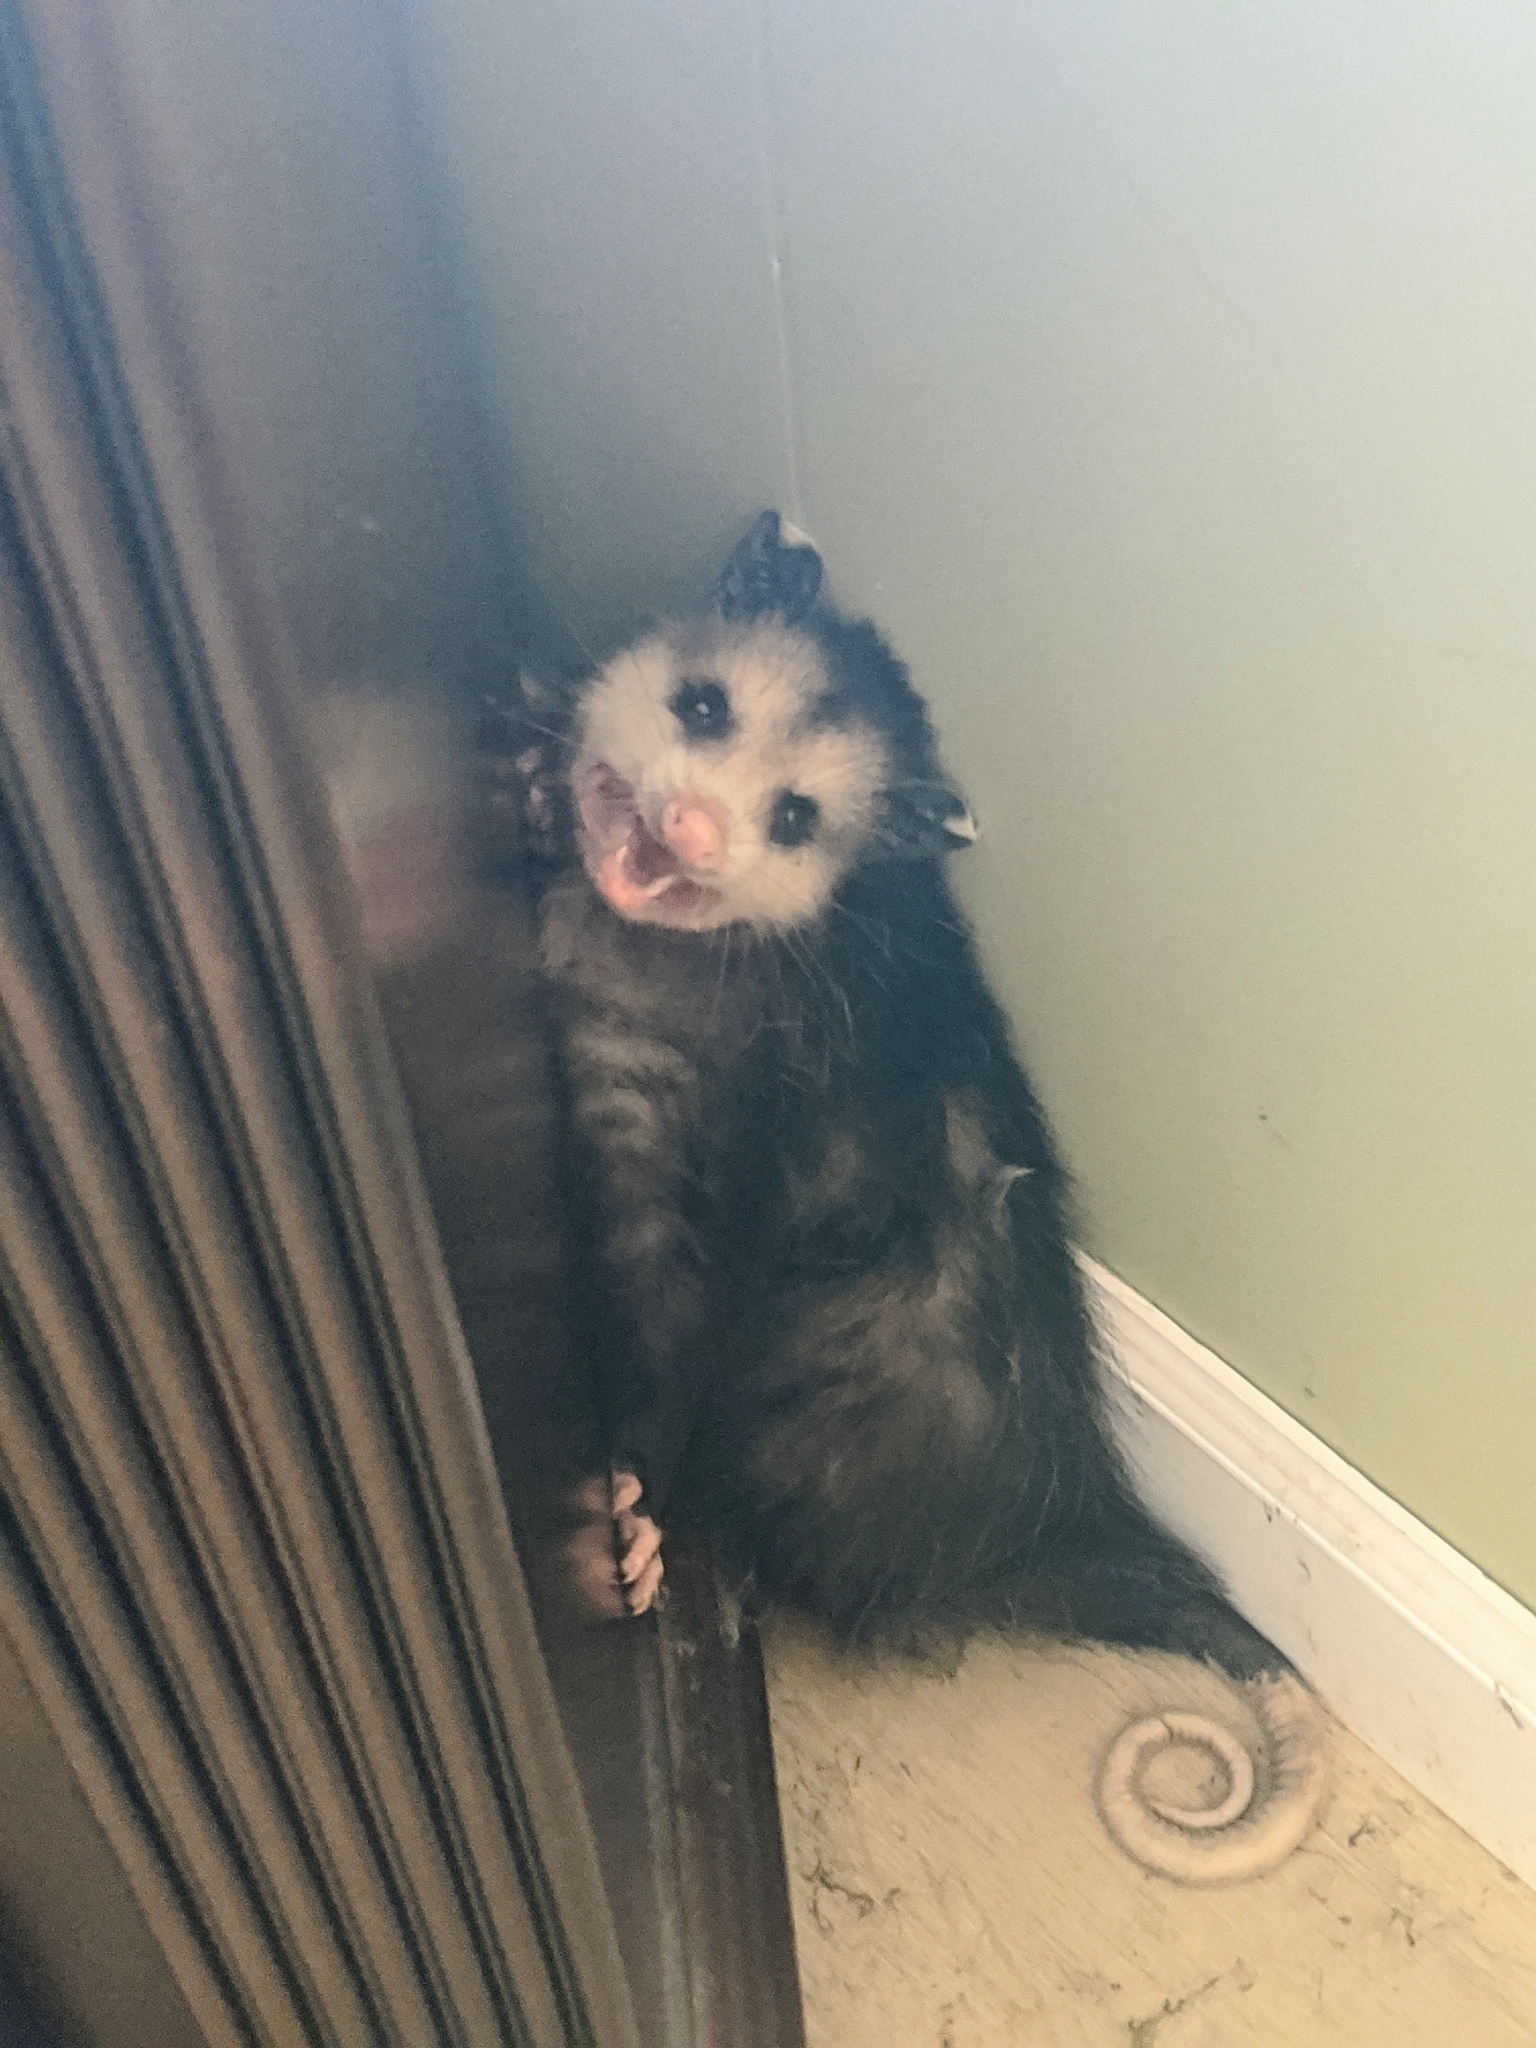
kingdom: Animalia
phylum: Chordata
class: Mammalia
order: Didelphimorphia
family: Didelphidae
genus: Didelphis
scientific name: Didelphis virginiana
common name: Virginia opossum
